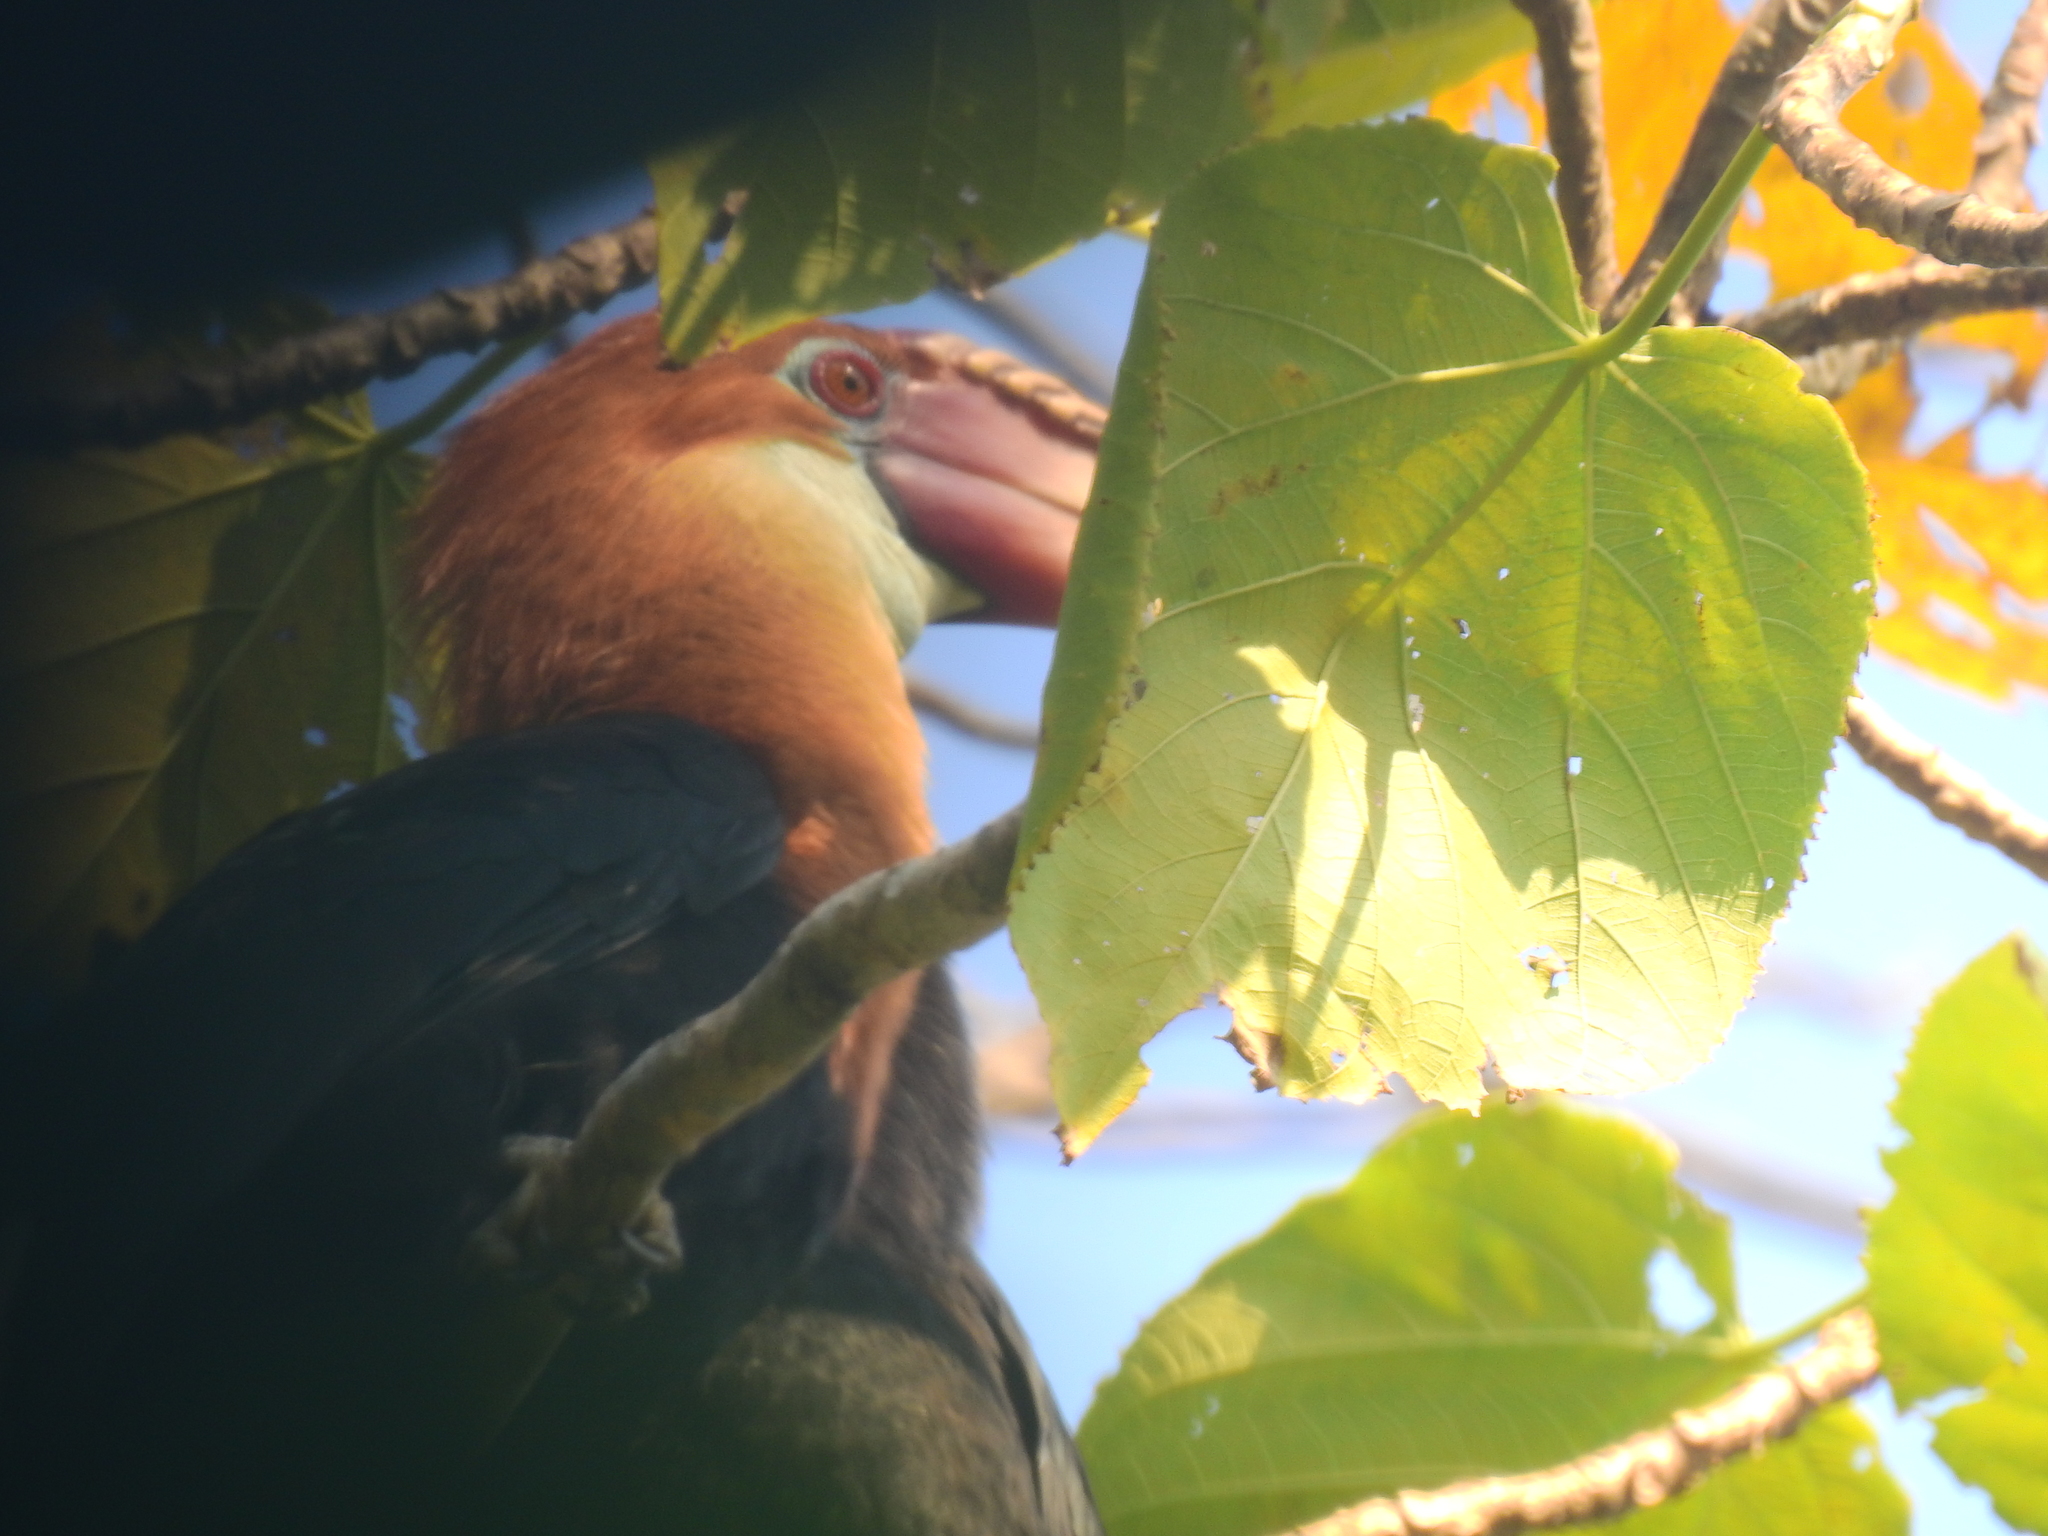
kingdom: Plantae
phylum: Tracheophyta
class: Magnoliopsida
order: Cucurbitales
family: Tetramelaceae
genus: Tetrameles
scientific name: Tetrameles nudiflora
